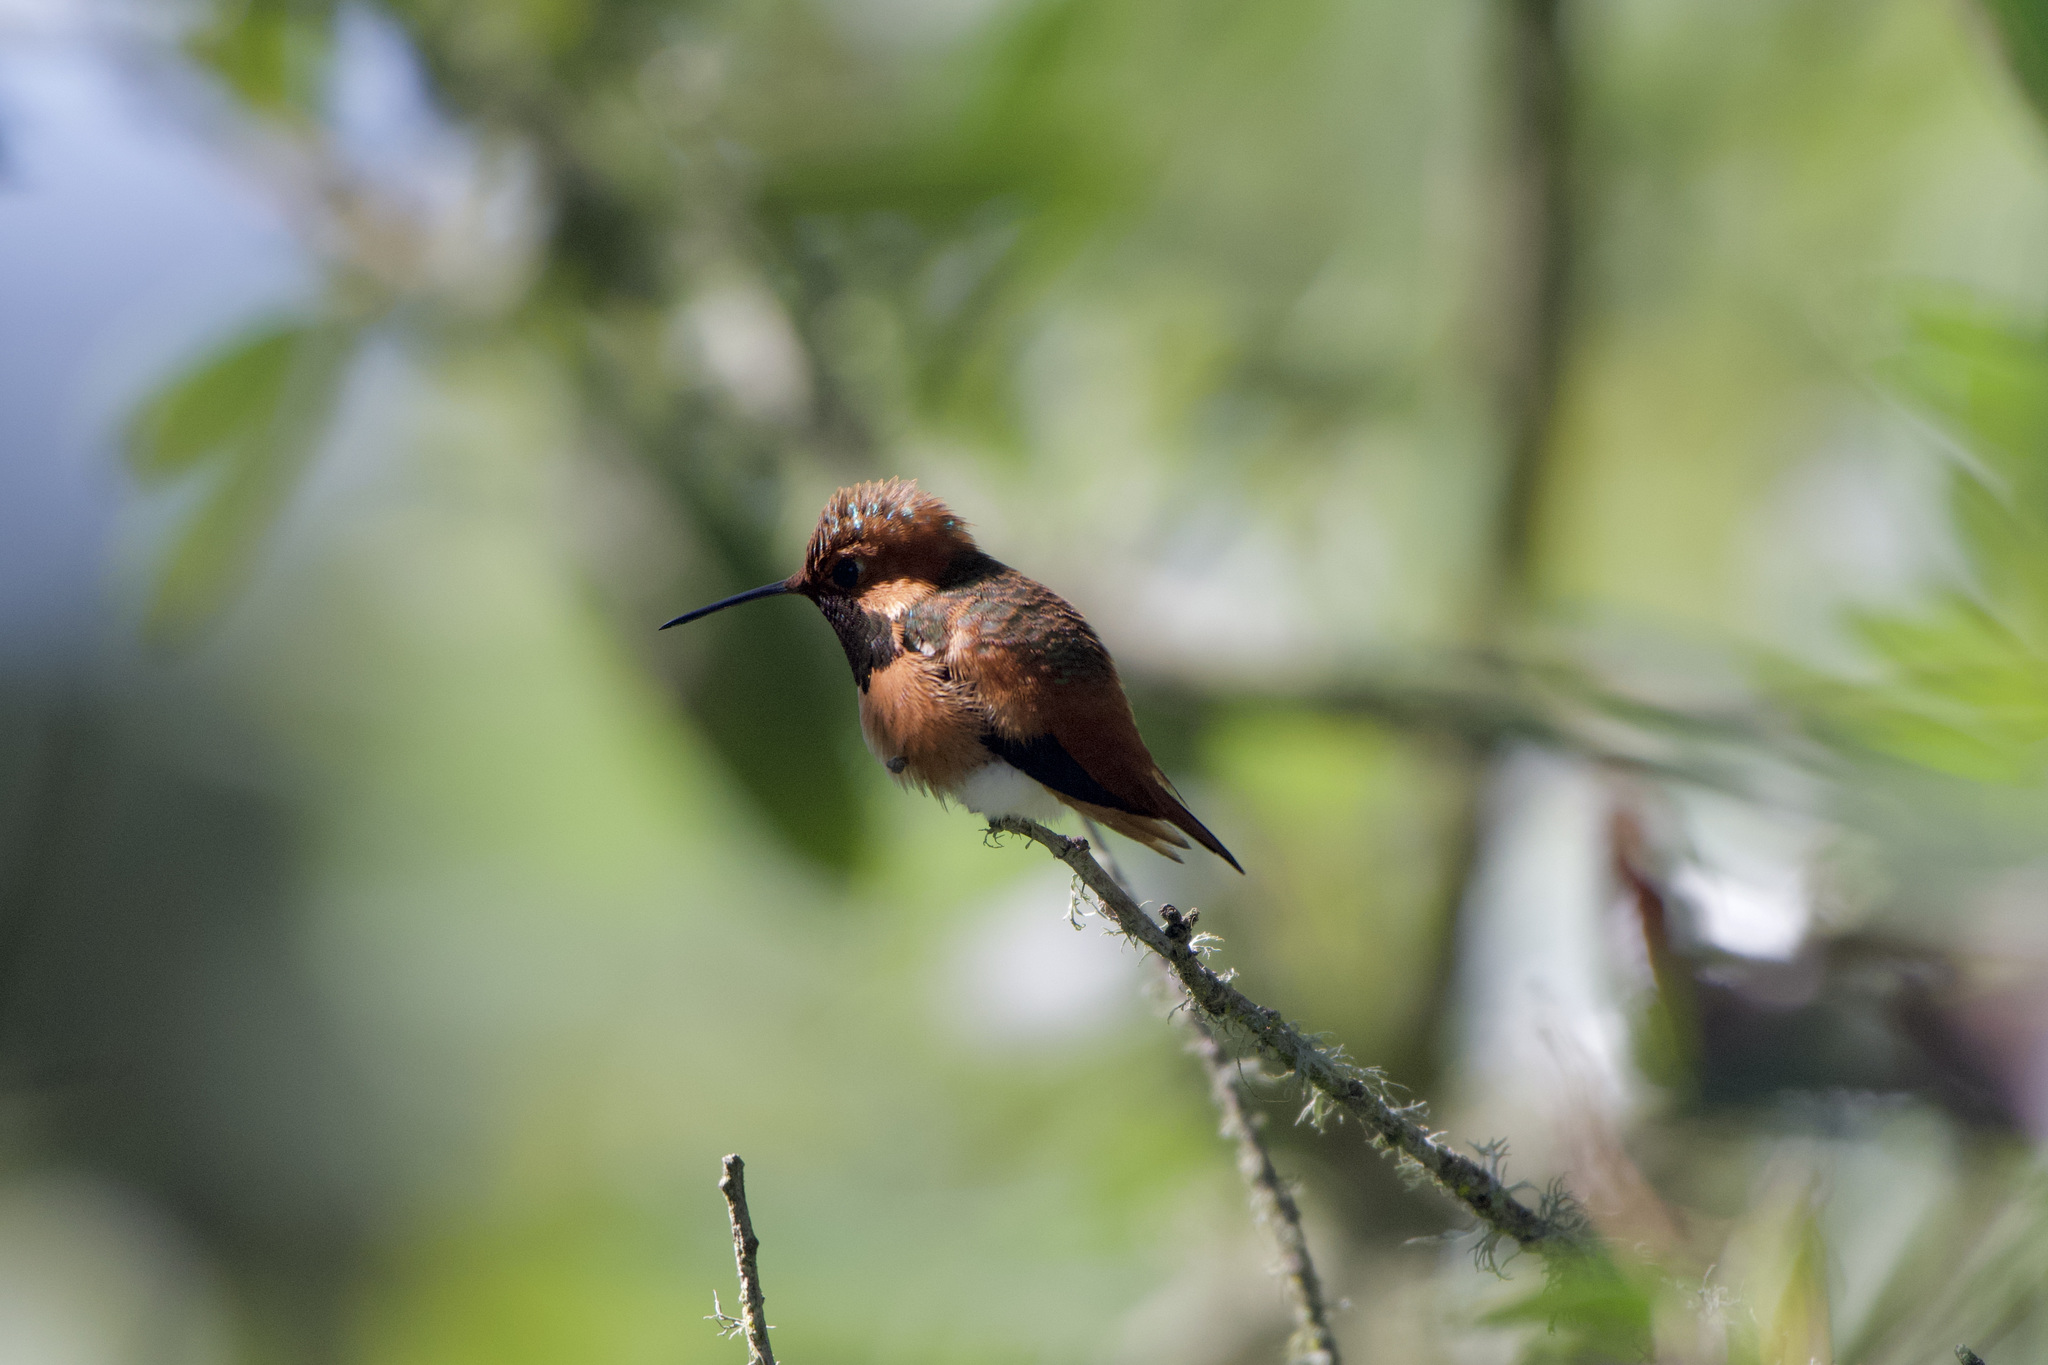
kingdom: Animalia
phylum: Chordata
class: Aves
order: Apodiformes
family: Trochilidae
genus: Selasphorus
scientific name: Selasphorus sasin
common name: Allen's hummingbird
